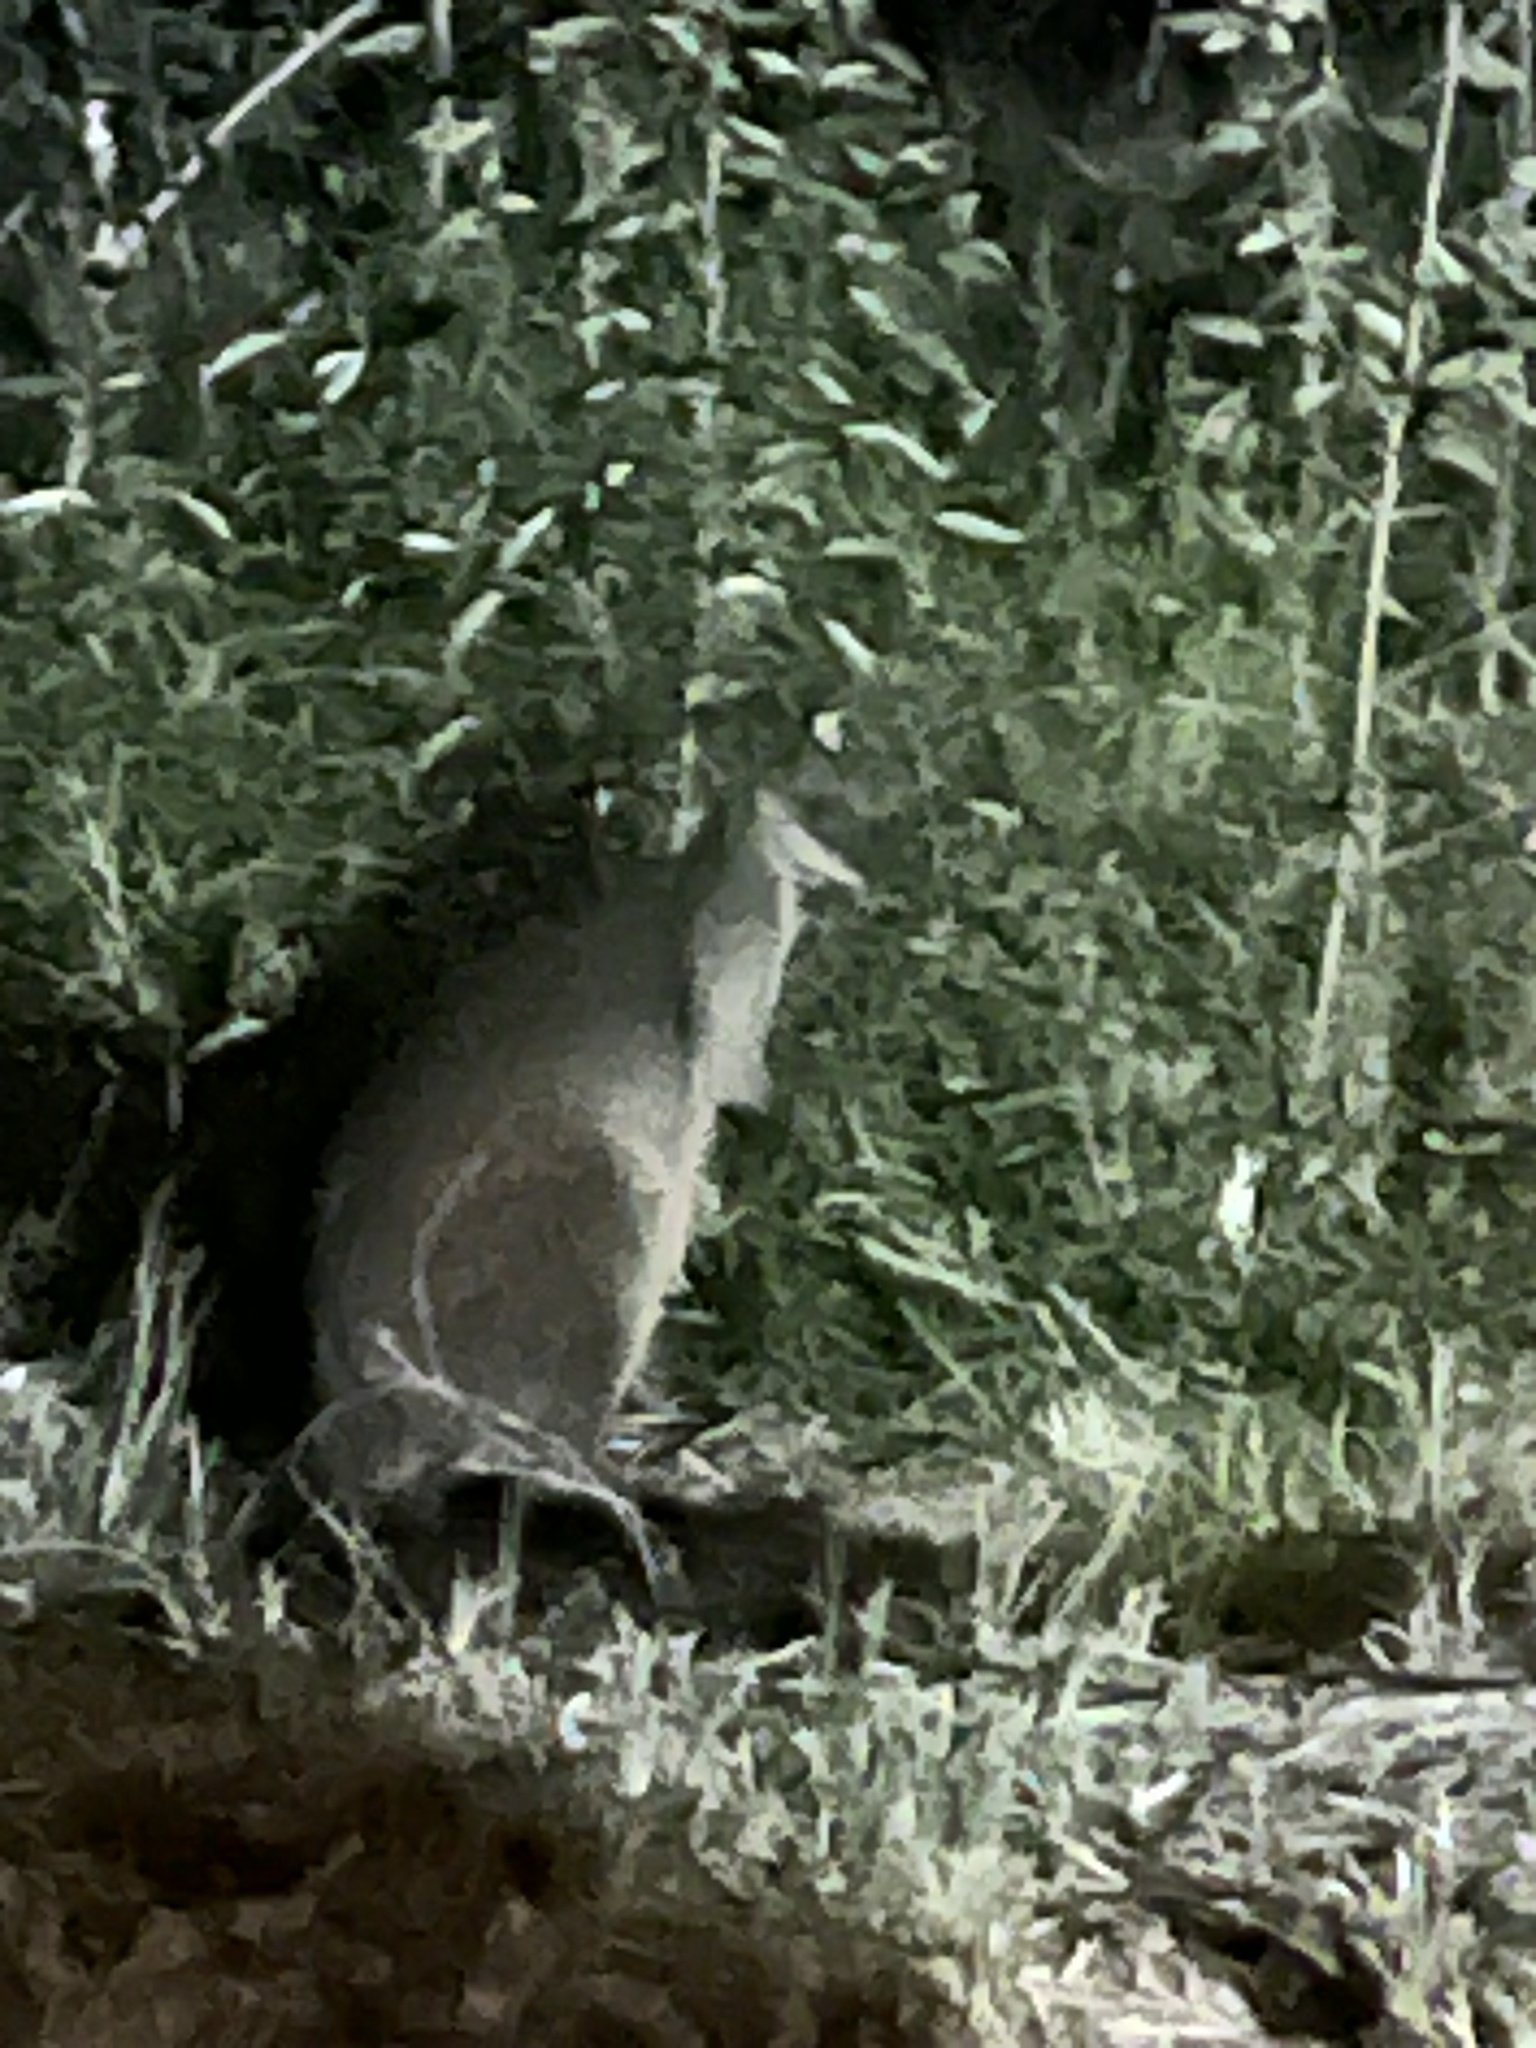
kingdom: Animalia
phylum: Chordata
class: Mammalia
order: Diprotodontia
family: Macropodidae
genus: Wallabia
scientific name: Wallabia bicolor
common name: Swamp wallaby
